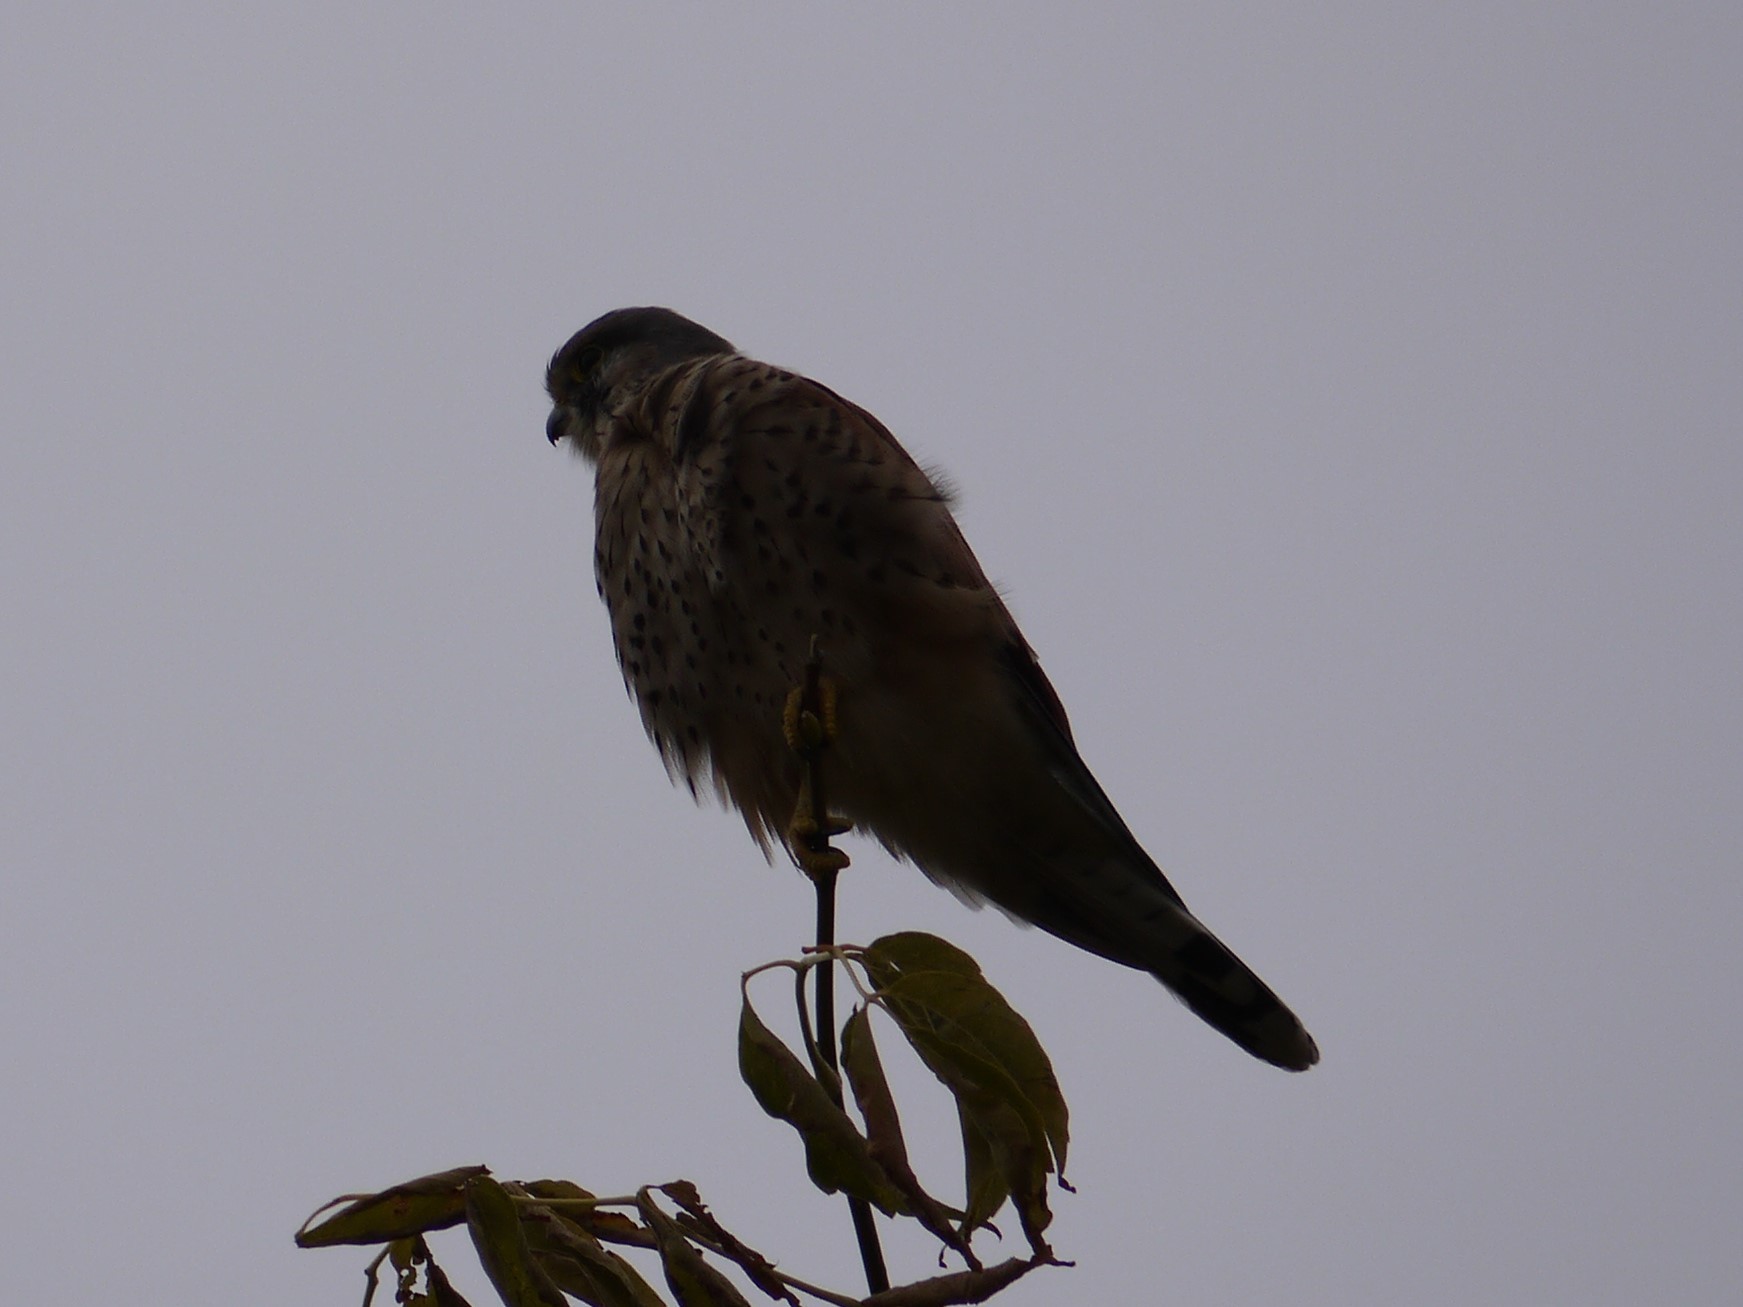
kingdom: Animalia
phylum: Chordata
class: Aves
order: Falconiformes
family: Falconidae
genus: Falco
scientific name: Falco tinnunculus
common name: Common kestrel
